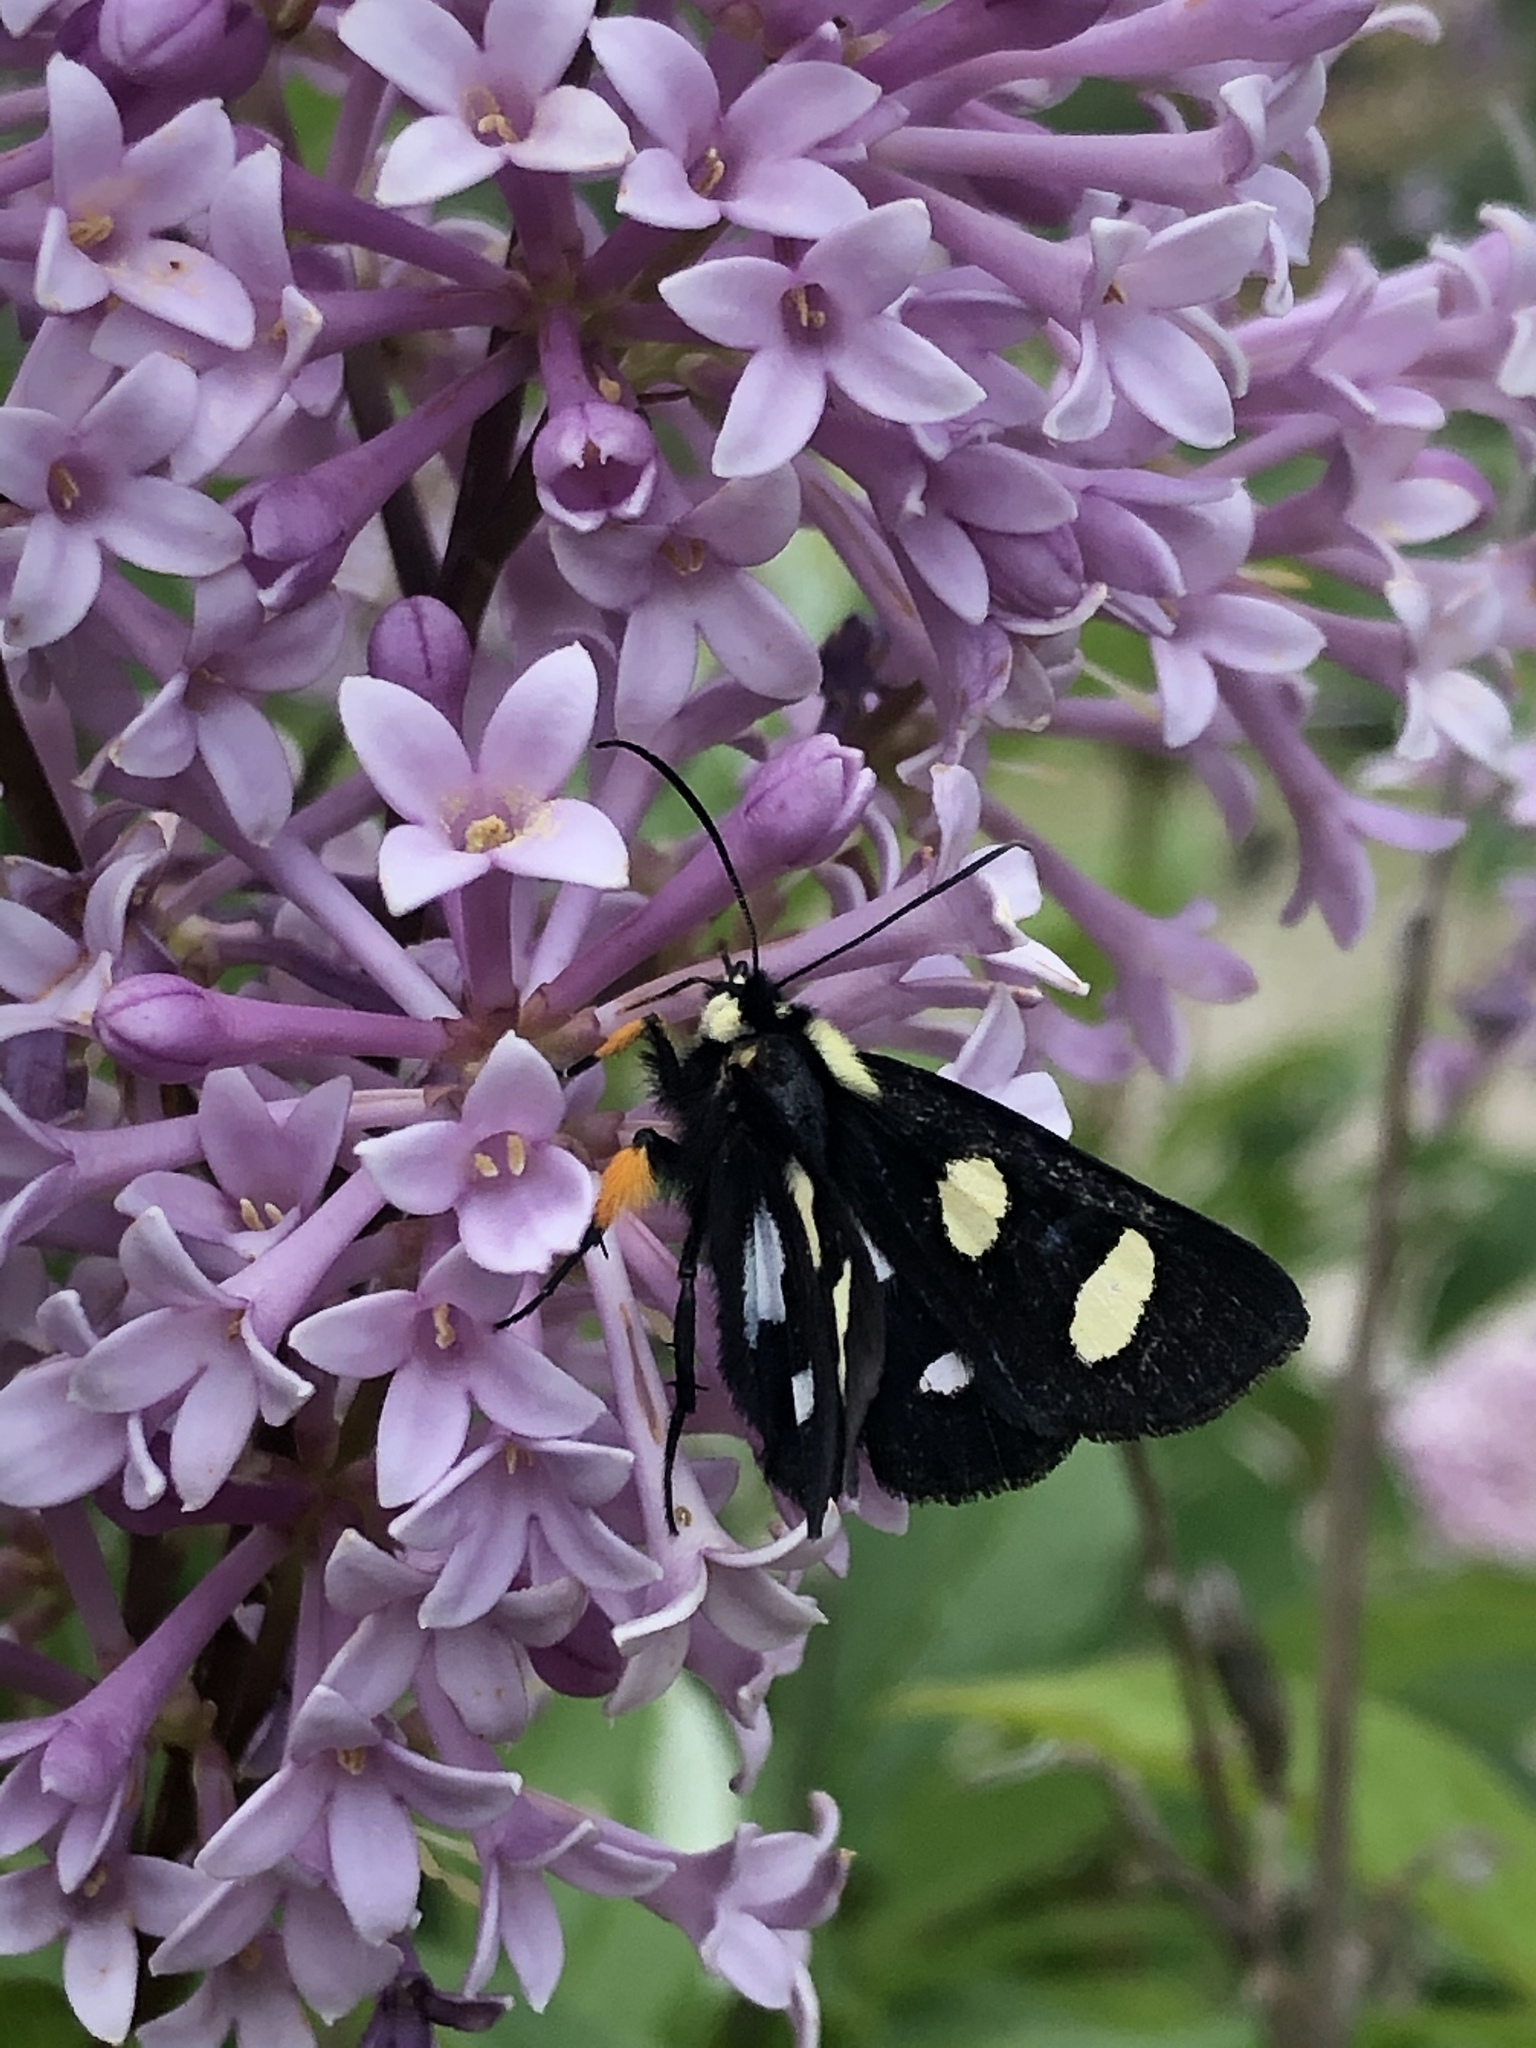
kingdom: Animalia
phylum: Arthropoda
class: Insecta
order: Lepidoptera
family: Noctuidae
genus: Alypia
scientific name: Alypia octomaculata
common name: Eight-spotted forester
